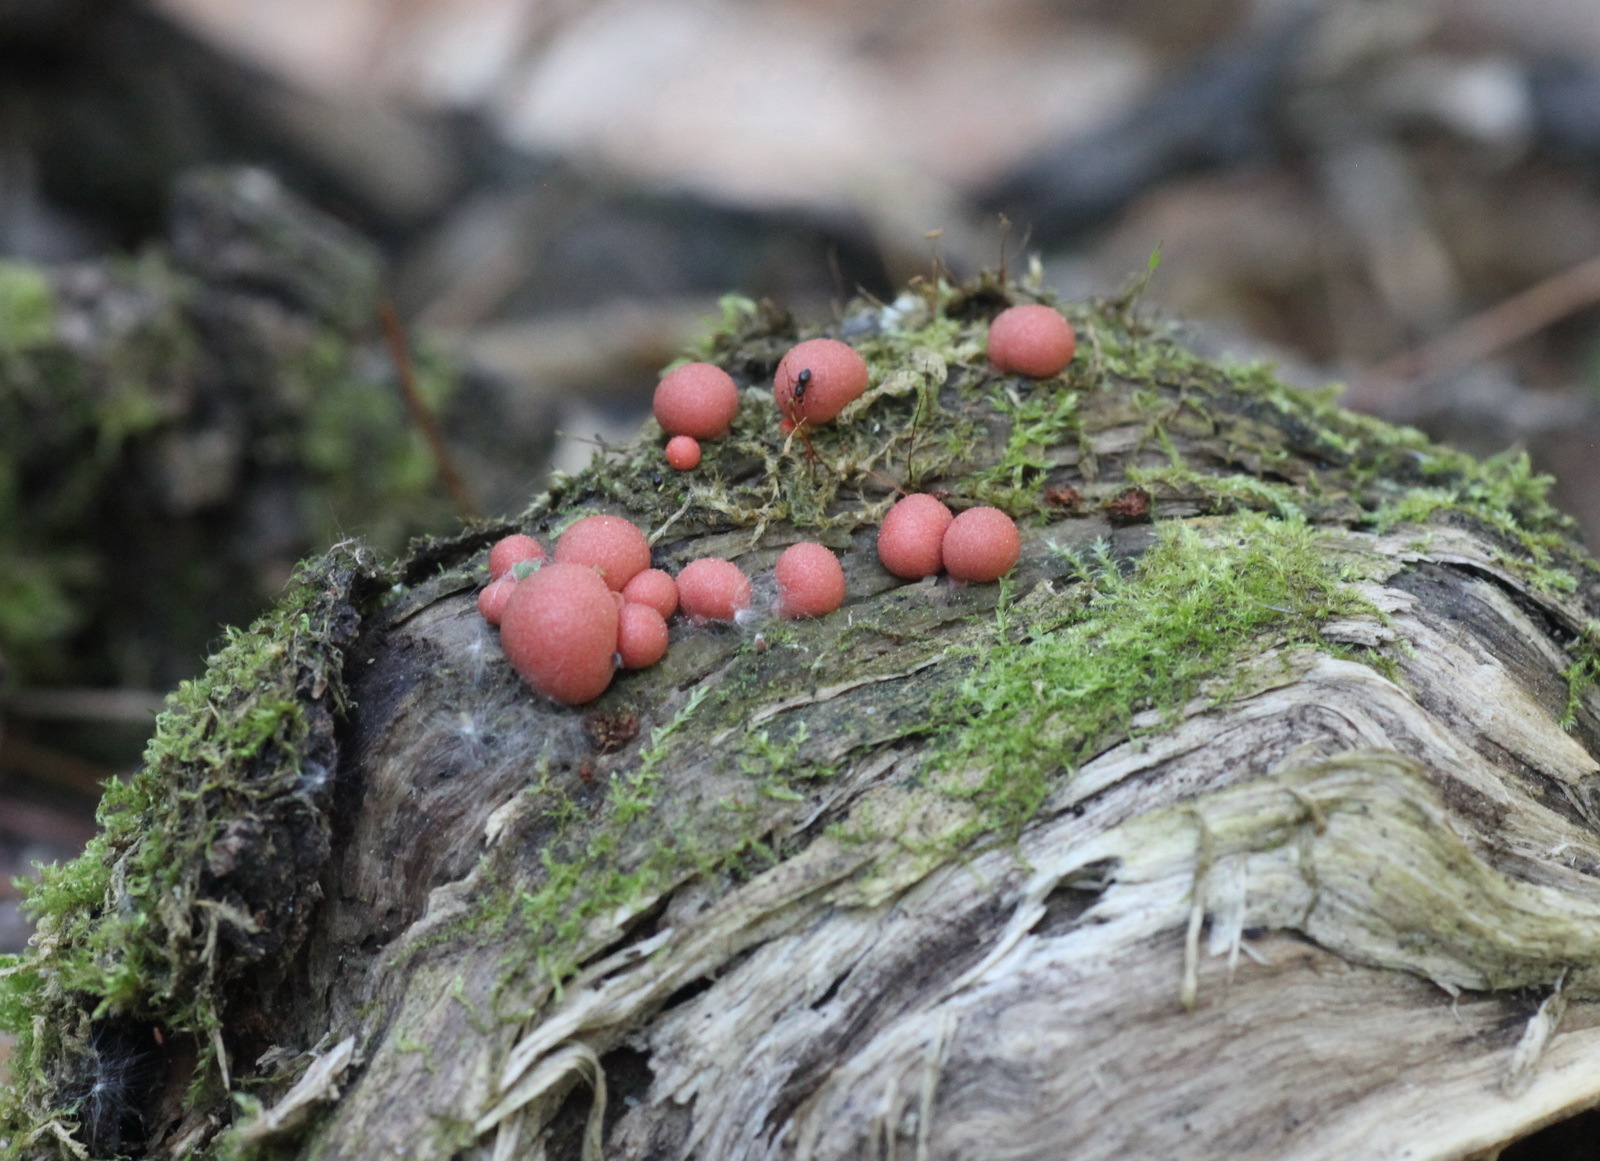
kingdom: Protozoa
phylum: Mycetozoa
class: Myxomycetes
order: Cribrariales
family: Tubiferaceae
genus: Lycogala
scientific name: Lycogala epidendrum
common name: Wolf's milk
